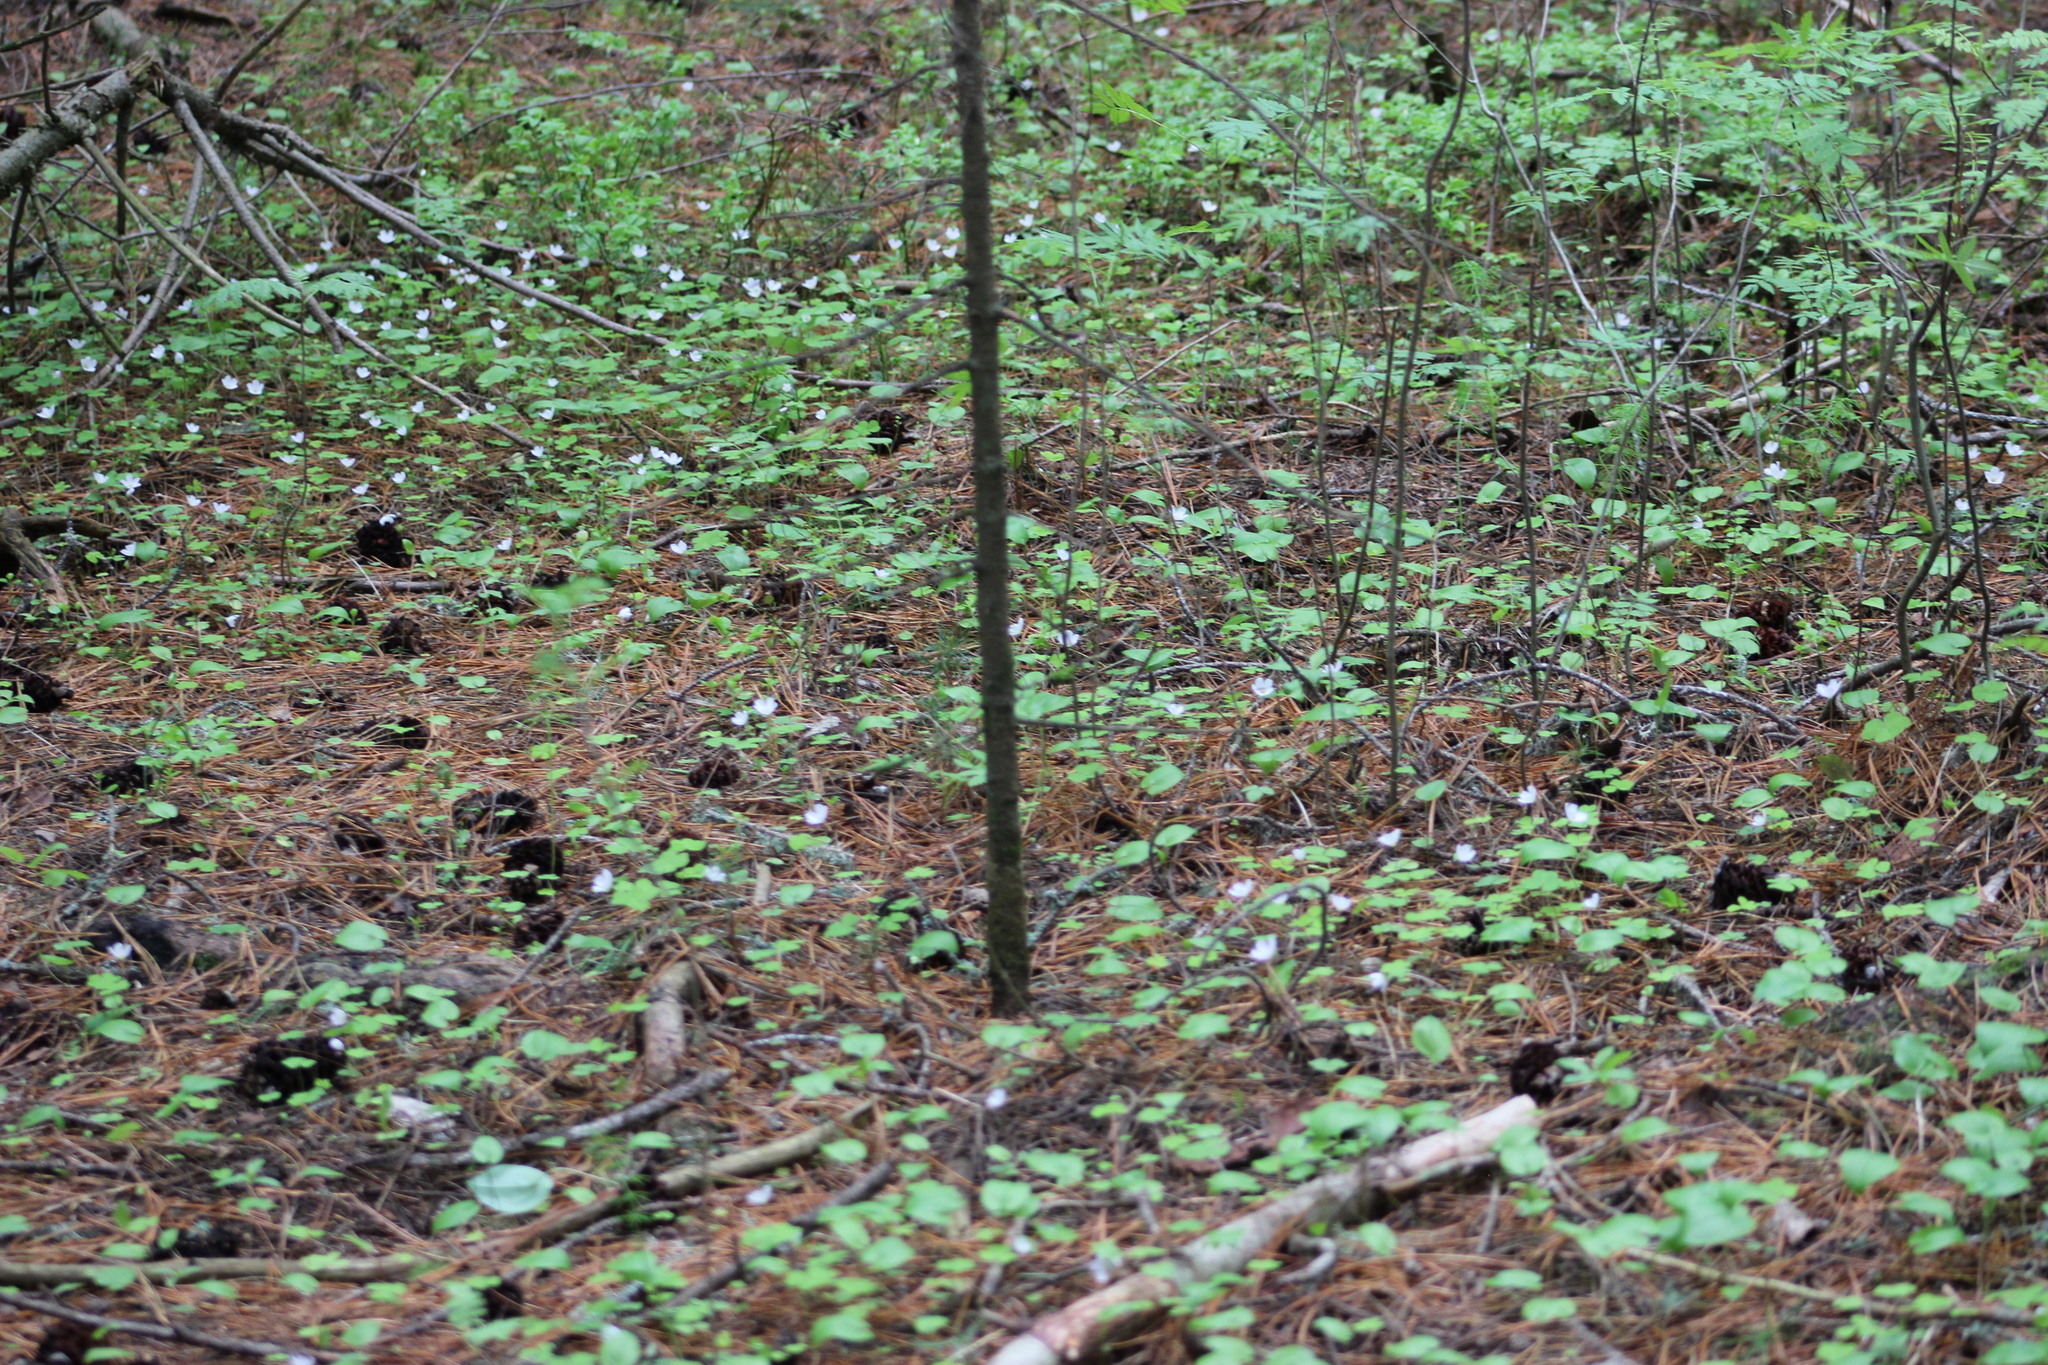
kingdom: Plantae
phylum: Tracheophyta
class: Magnoliopsida
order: Oxalidales
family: Oxalidaceae
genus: Oxalis
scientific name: Oxalis acetosella
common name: Wood-sorrel
